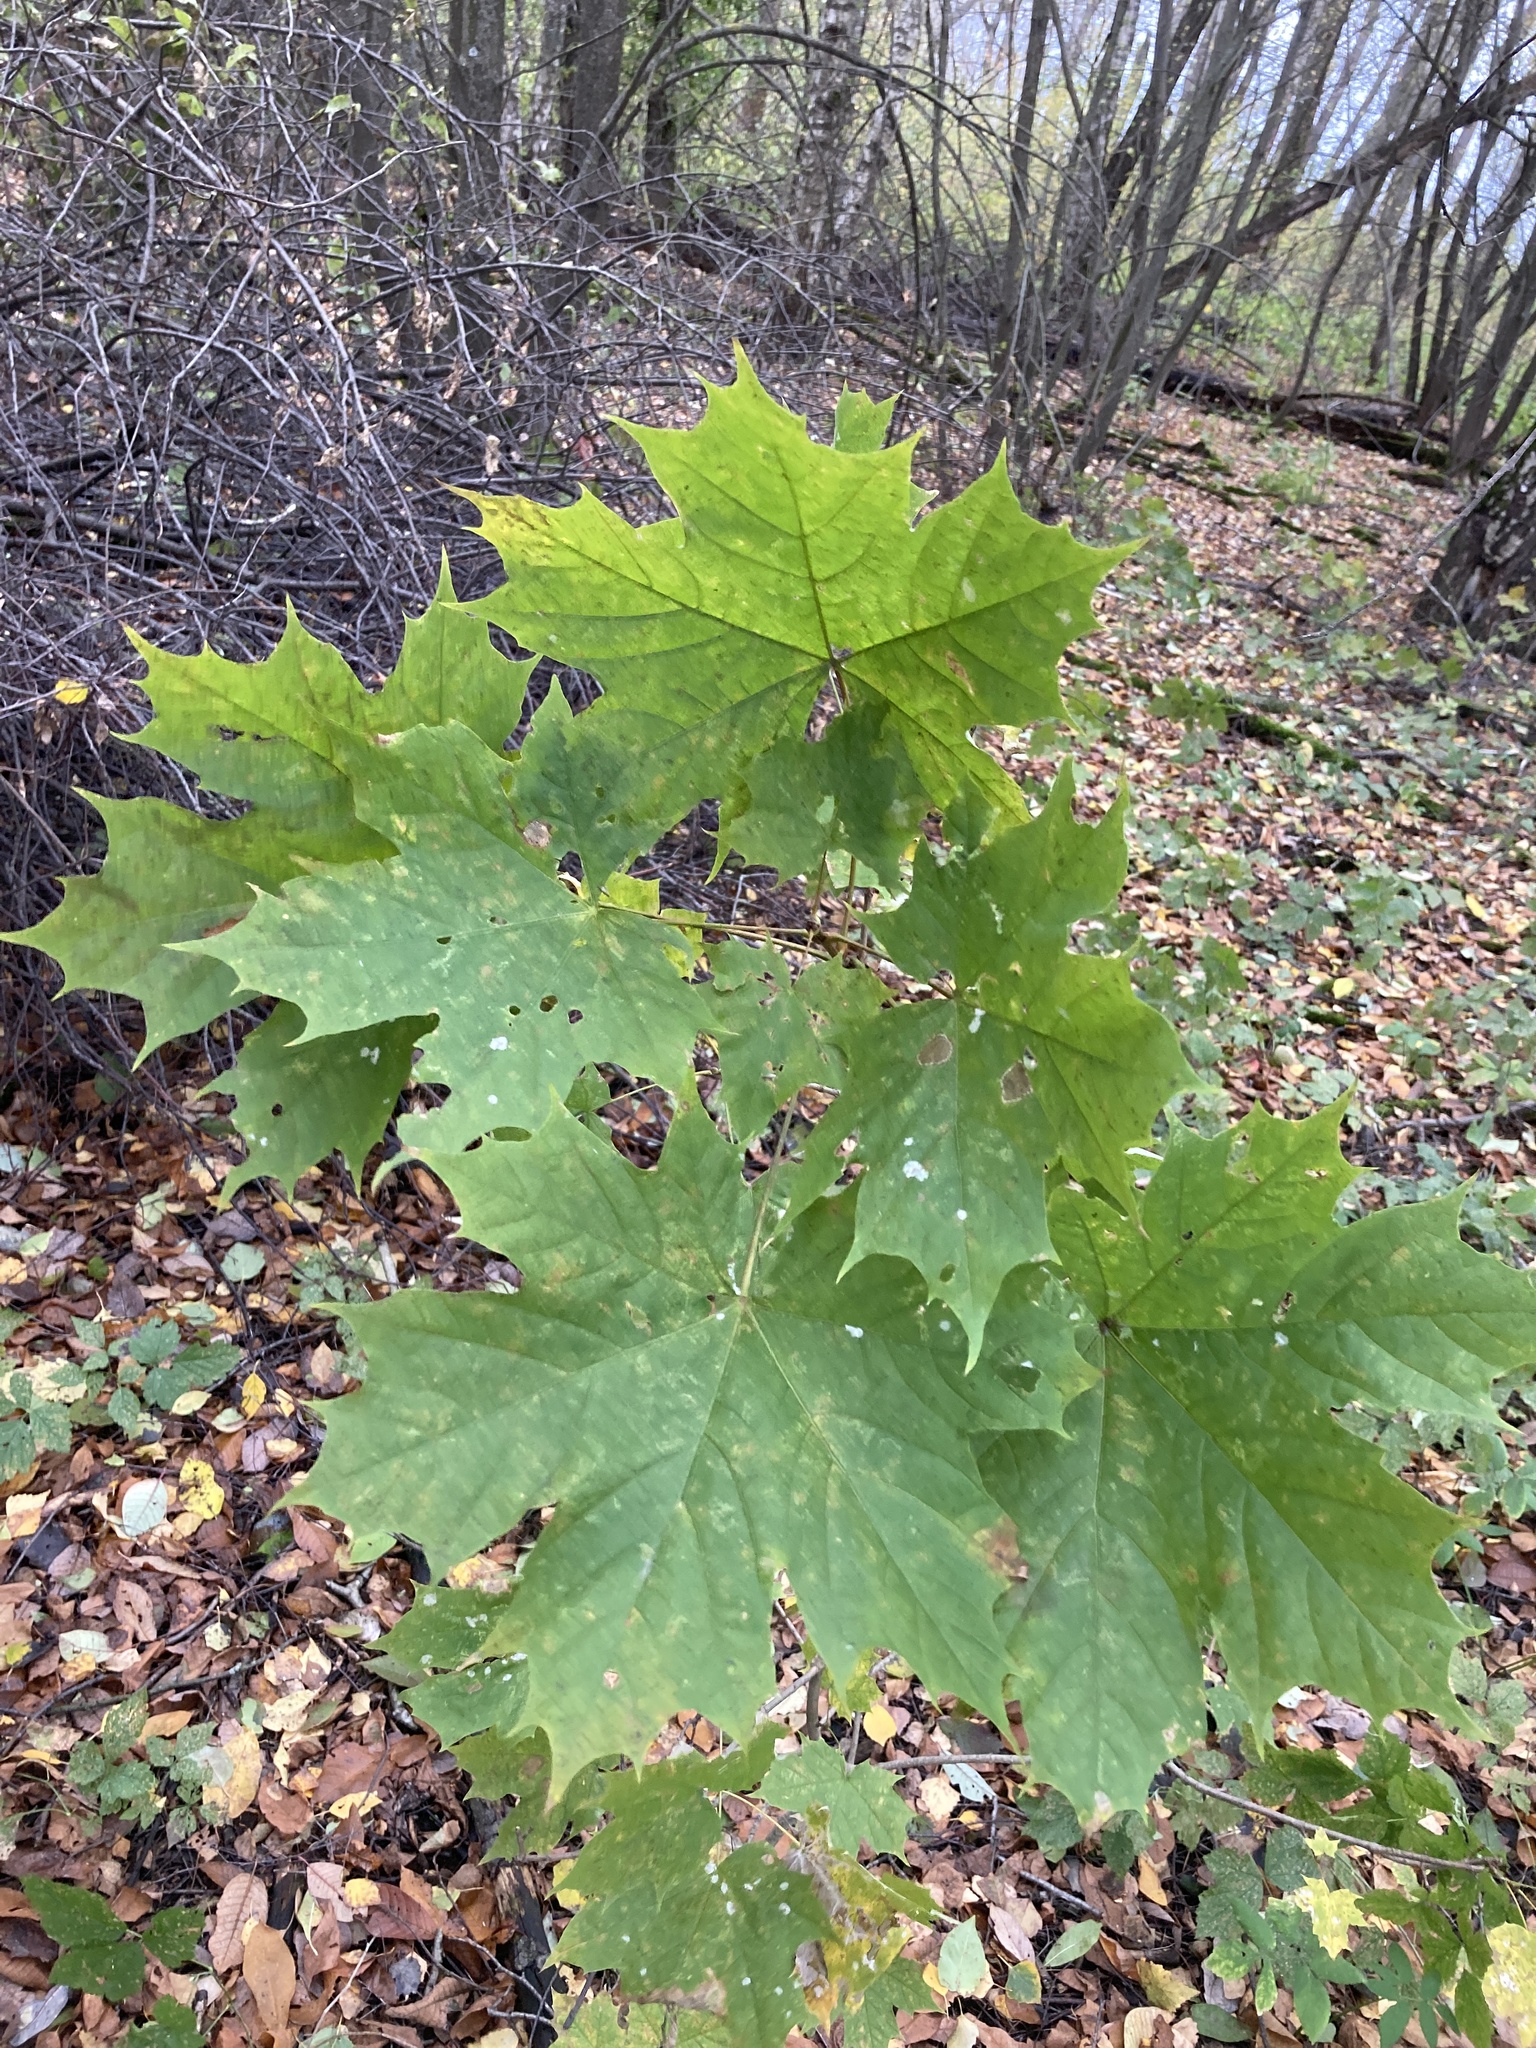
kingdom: Plantae
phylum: Tracheophyta
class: Magnoliopsida
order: Sapindales
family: Sapindaceae
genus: Acer
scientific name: Acer platanoides
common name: Norway maple
